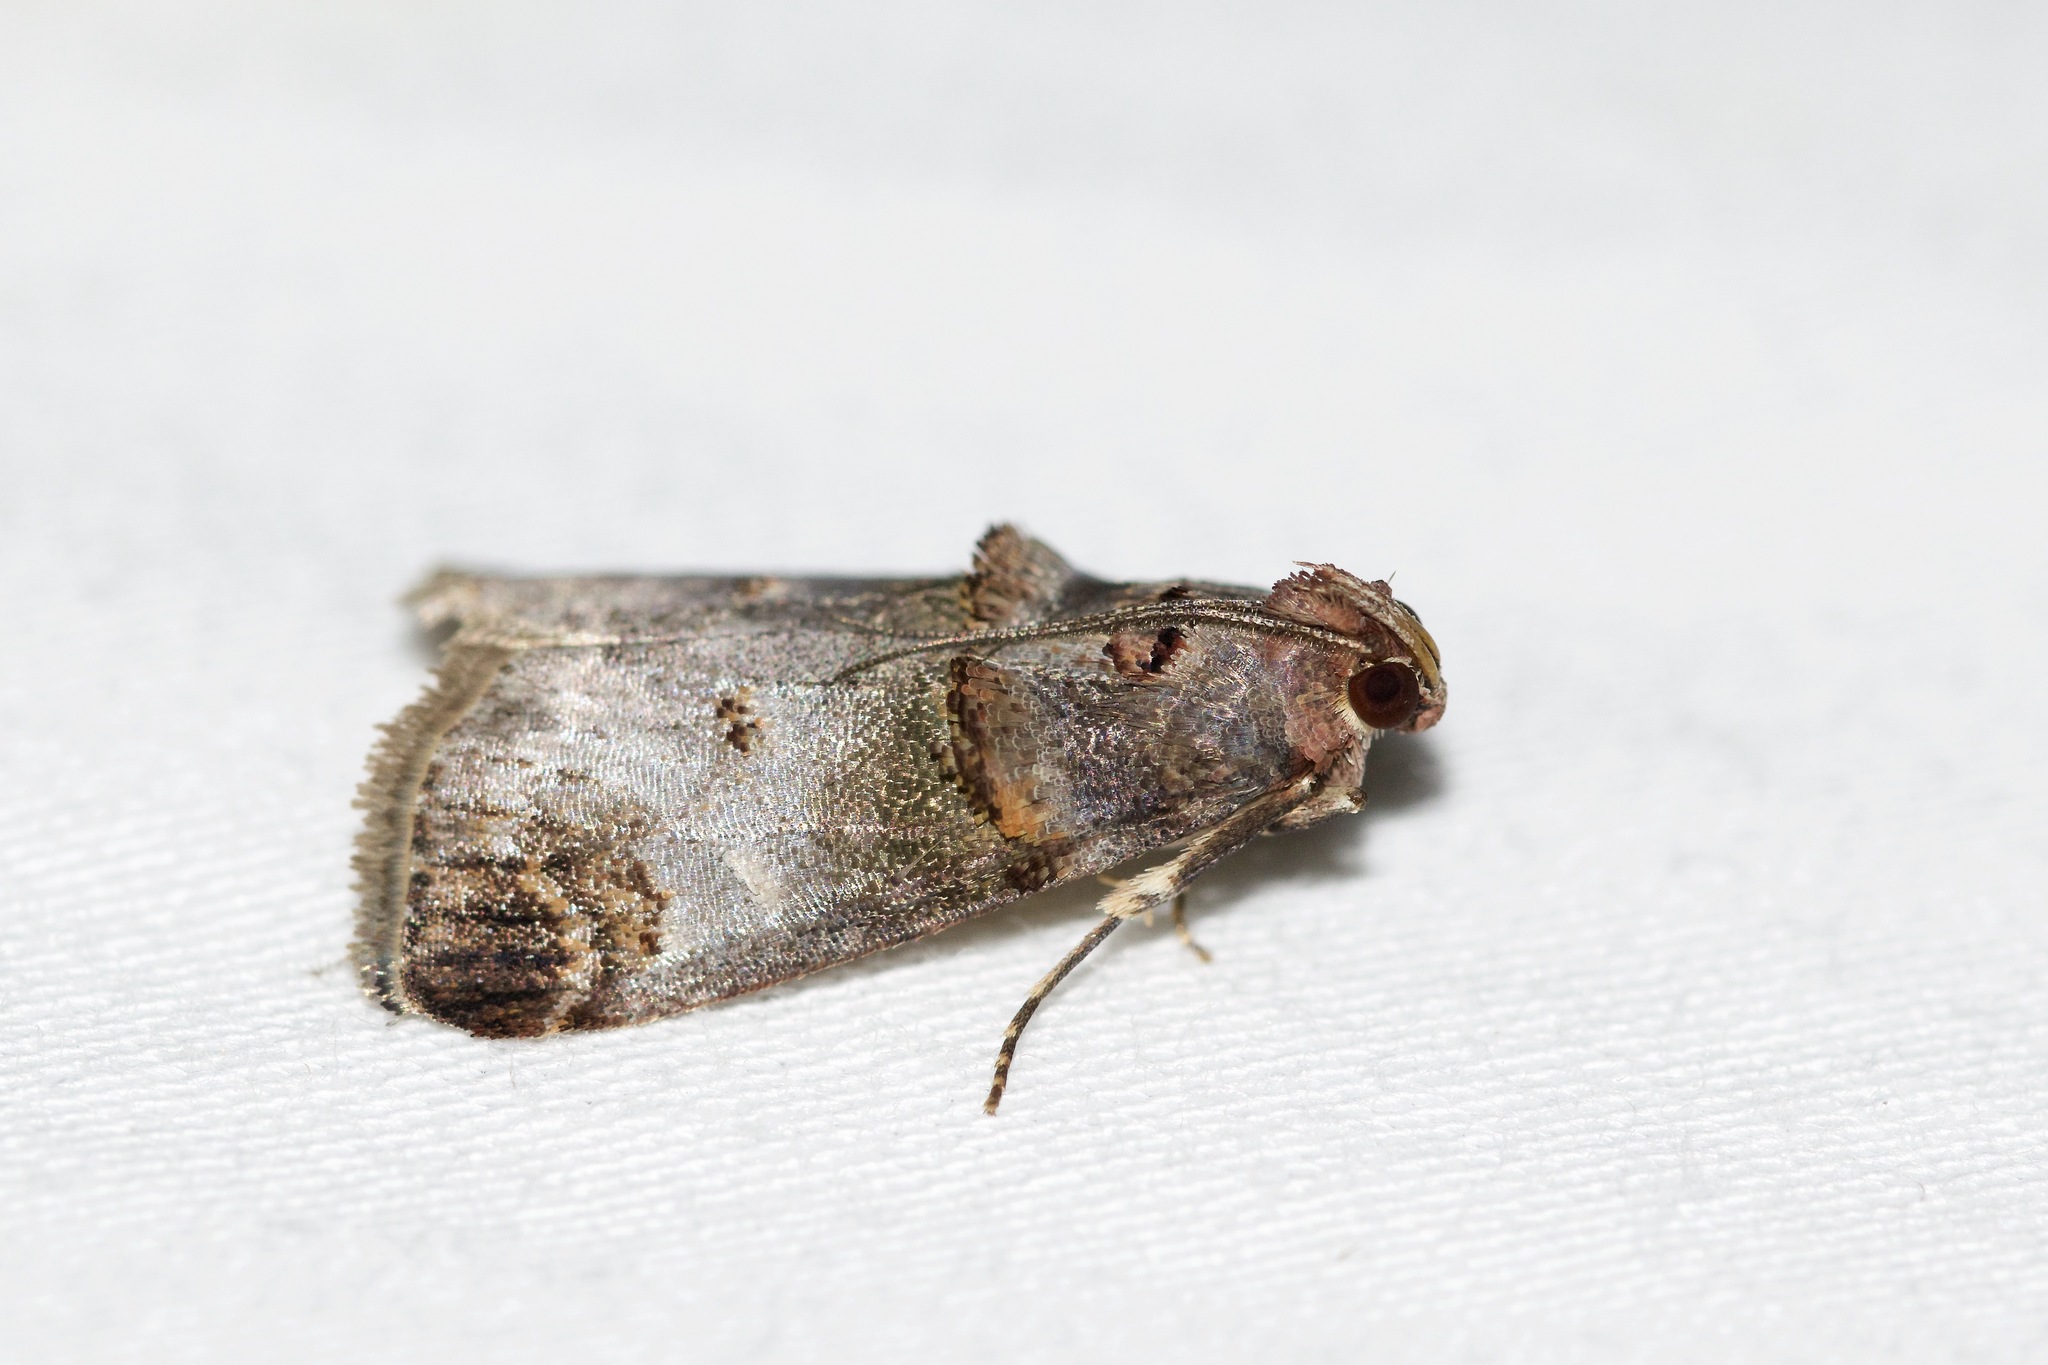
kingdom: Animalia
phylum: Arthropoda
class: Insecta
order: Lepidoptera
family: Pyralidae
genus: Oneida
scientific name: Oneida lunulalis
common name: Orange-tufted oneida moth
